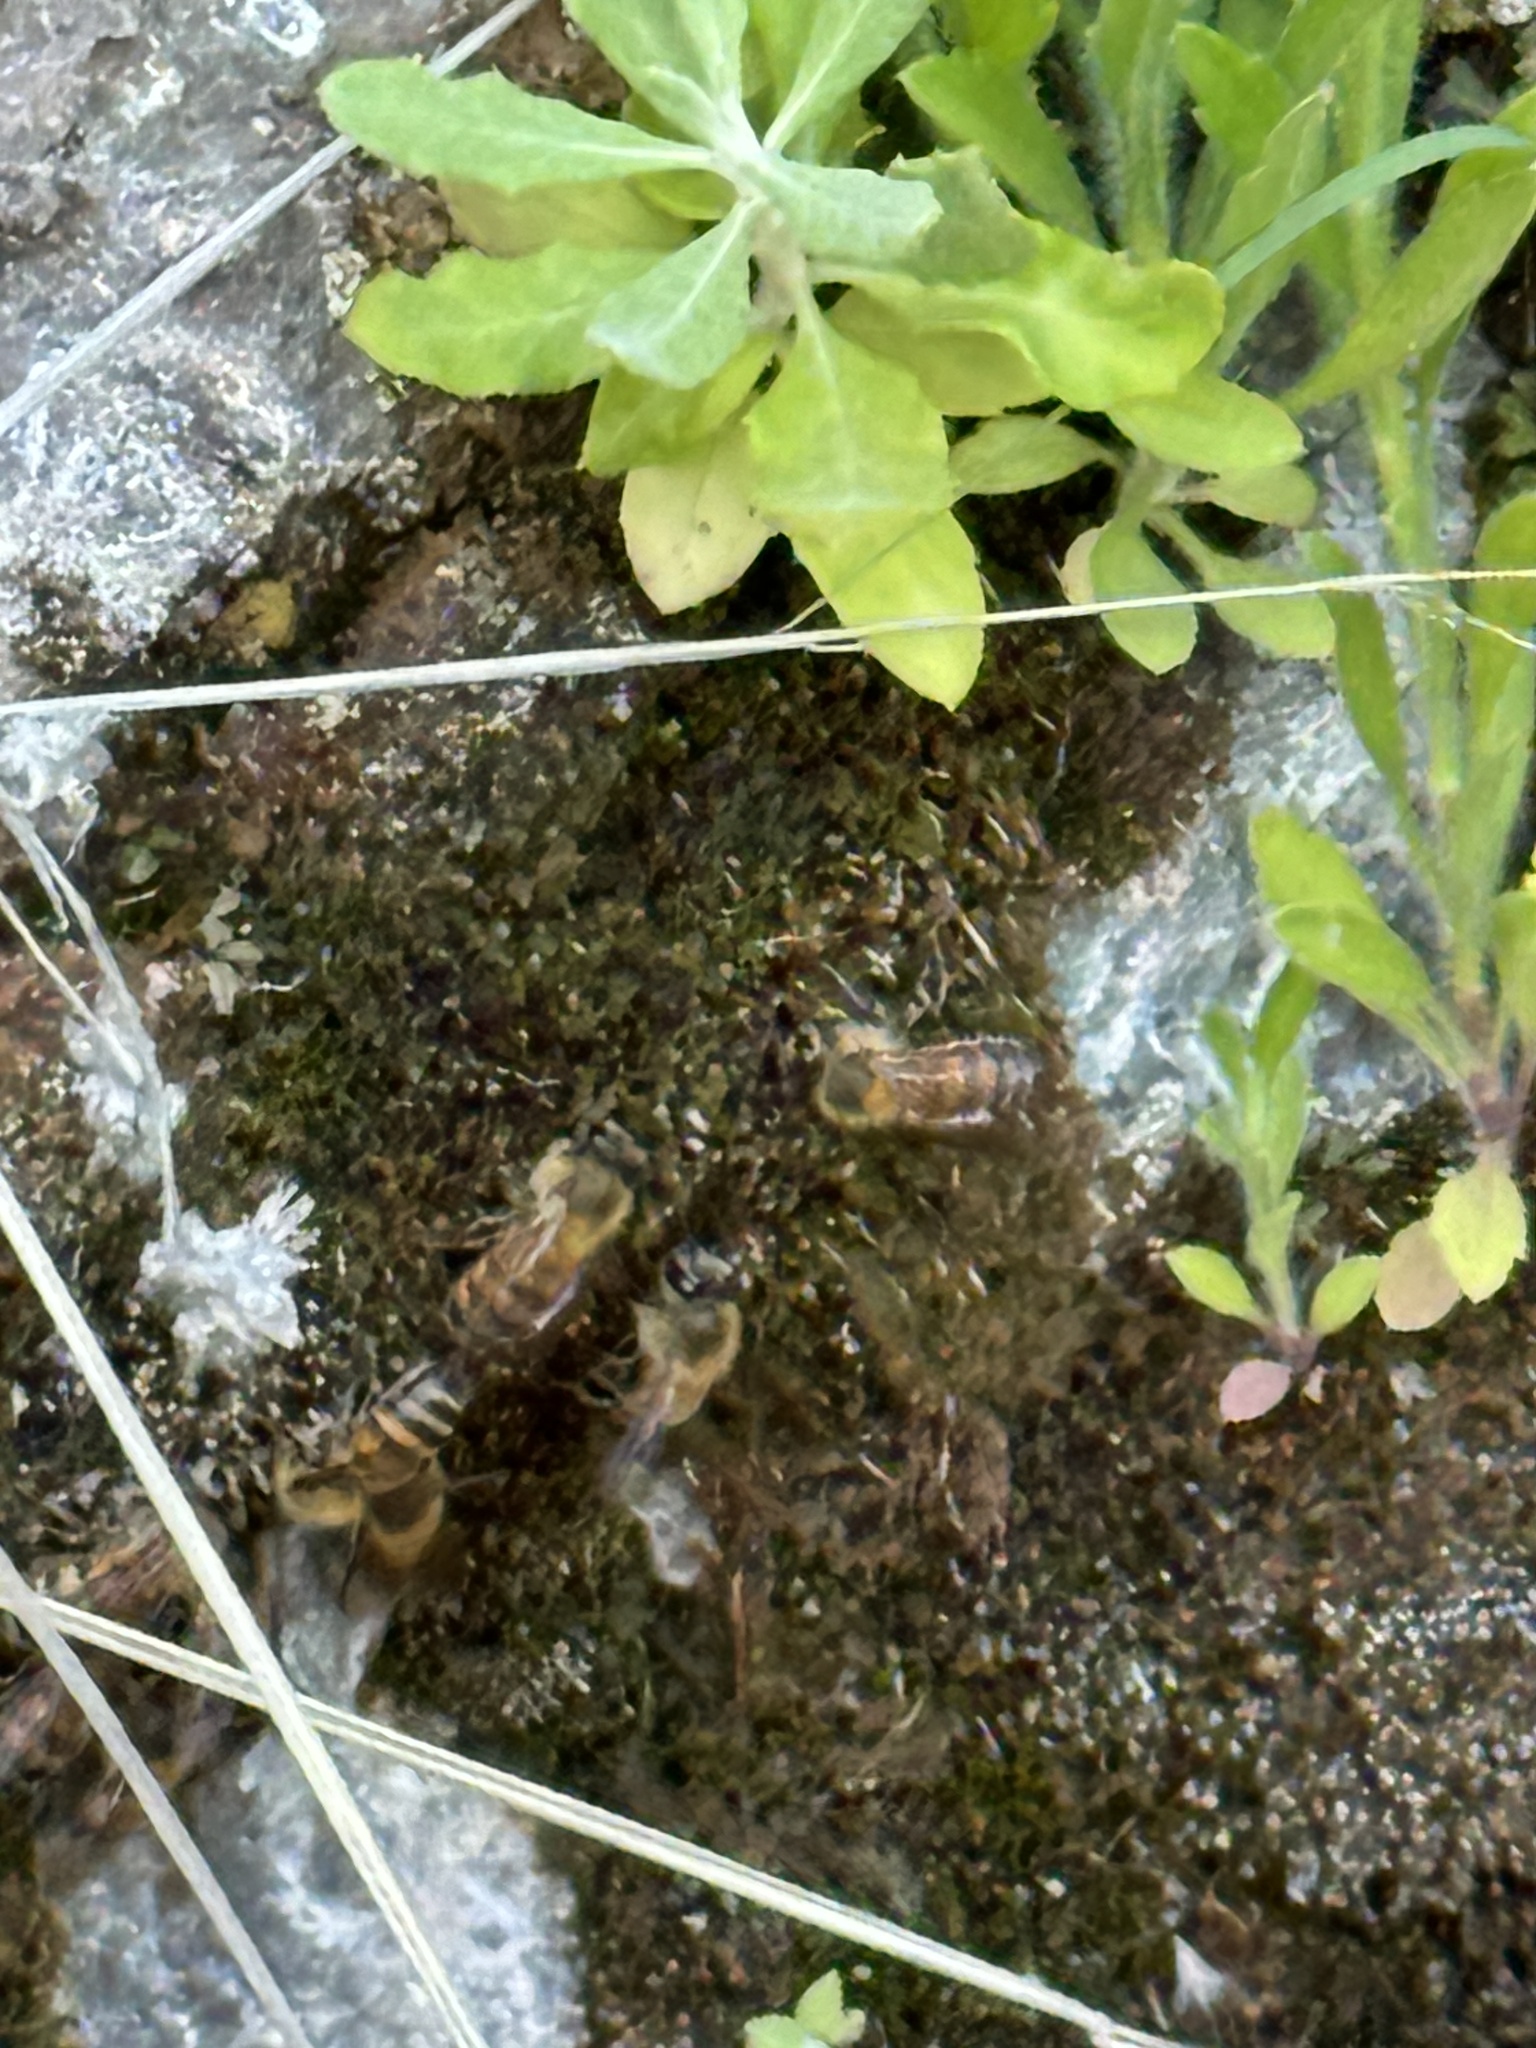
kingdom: Animalia
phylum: Arthropoda
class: Insecta
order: Hymenoptera
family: Apidae
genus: Apis
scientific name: Apis mellifera
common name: Honey bee
